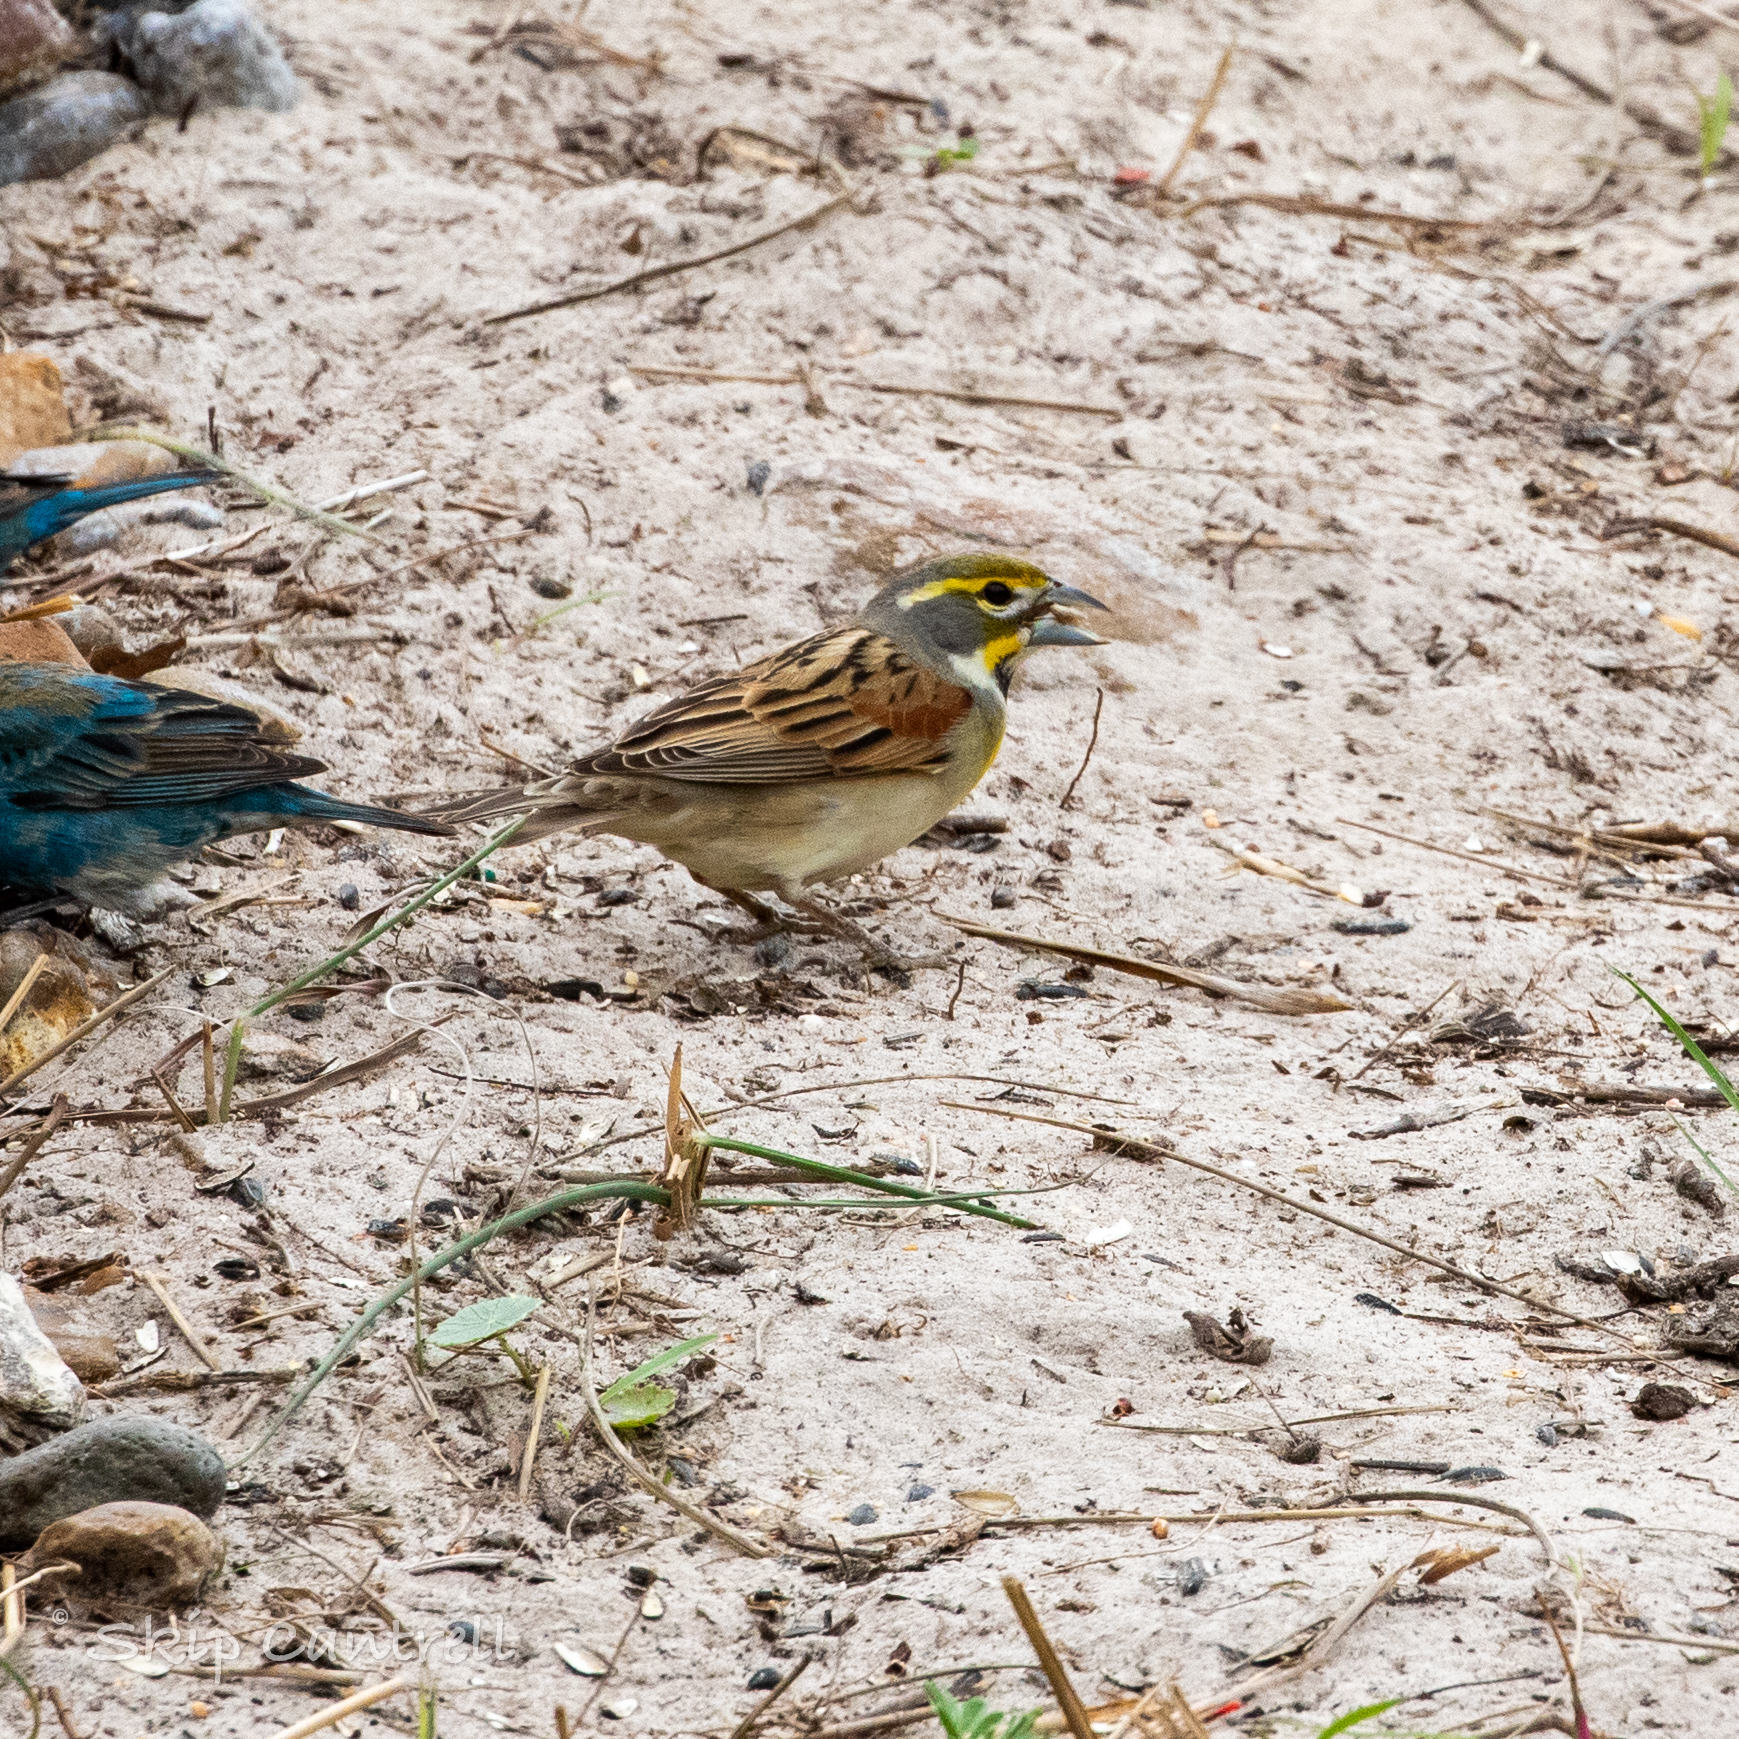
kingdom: Animalia
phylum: Chordata
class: Aves
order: Passeriformes
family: Cardinalidae
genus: Spiza
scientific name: Spiza americana
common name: Dickcissel
